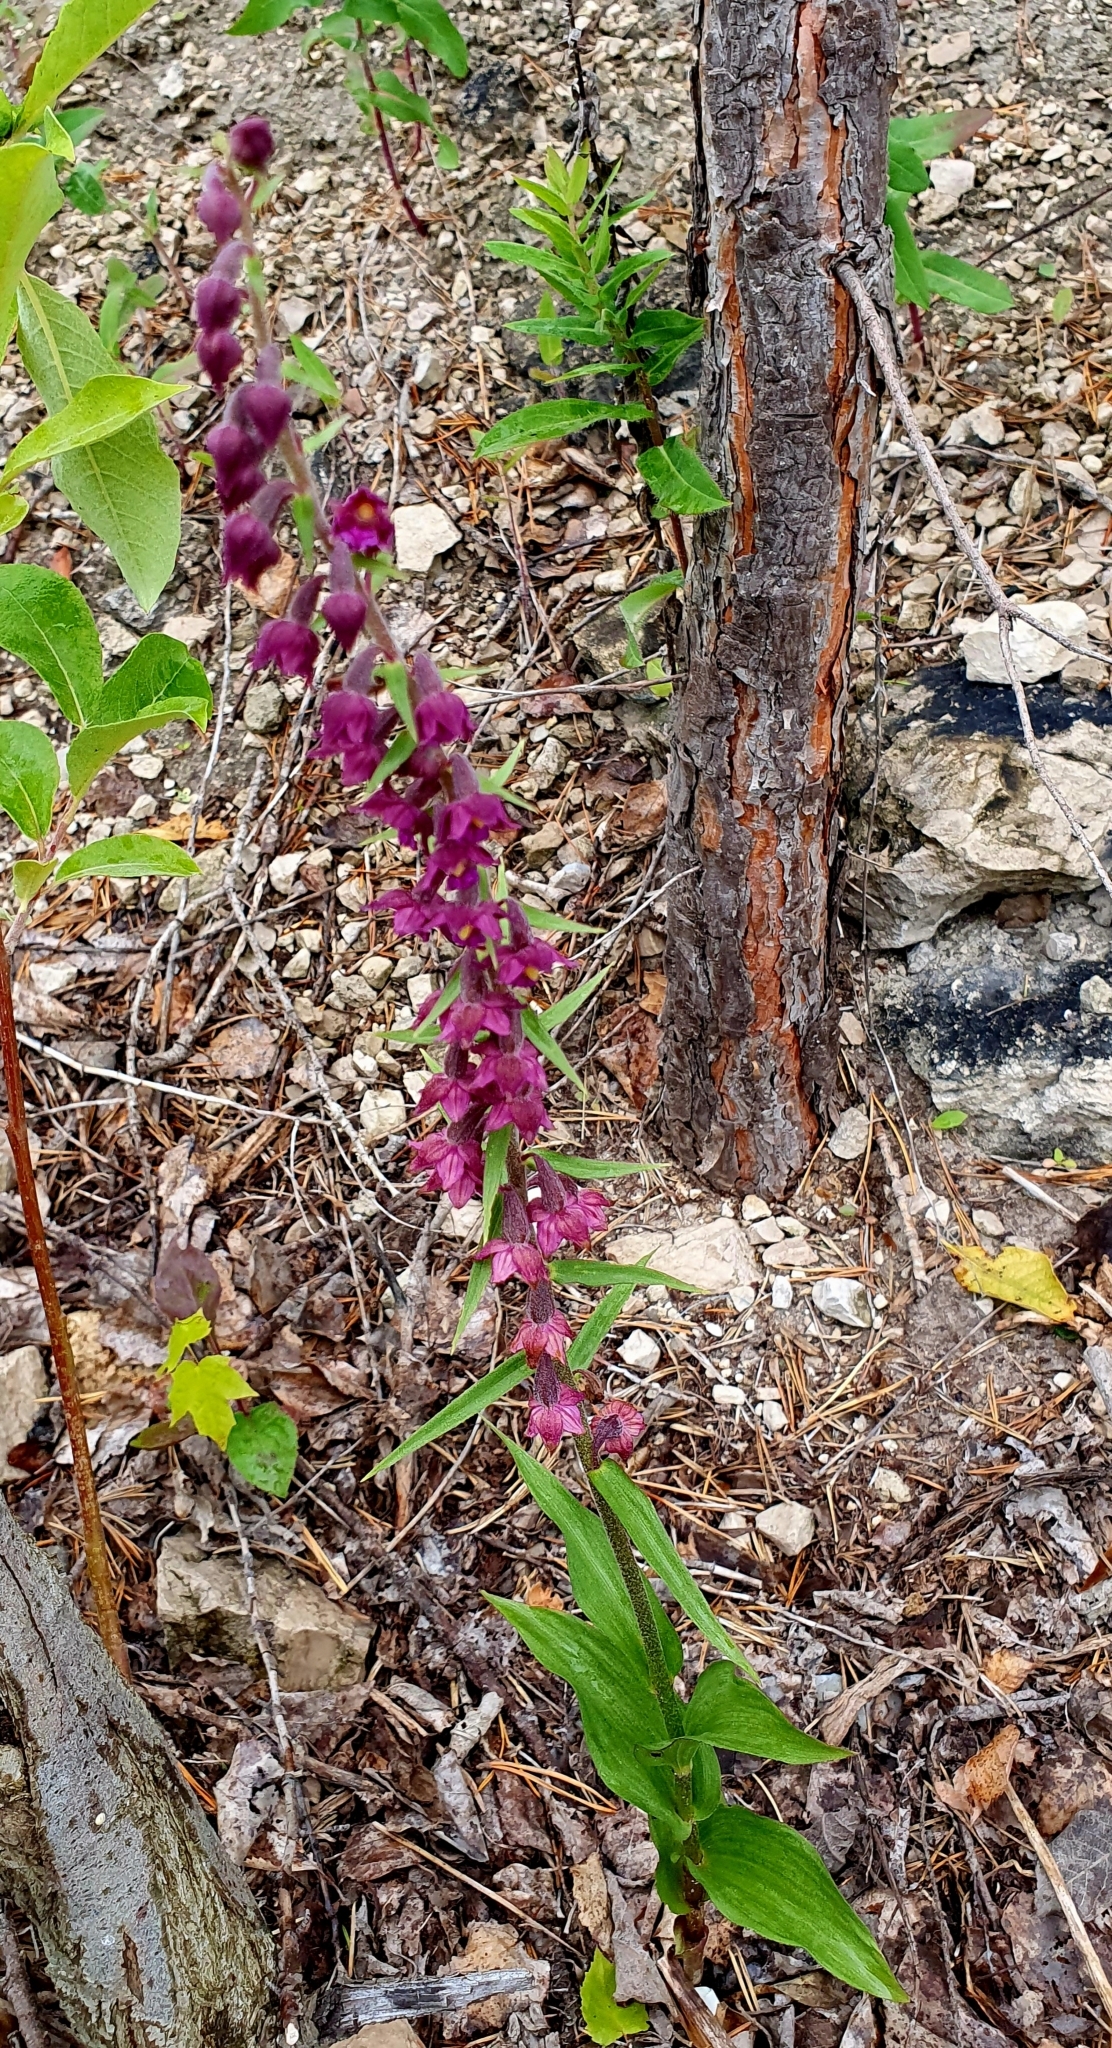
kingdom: Plantae
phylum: Tracheophyta
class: Liliopsida
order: Asparagales
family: Orchidaceae
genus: Epipactis
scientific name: Epipactis atrorubens
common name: Dark-red helleborine
